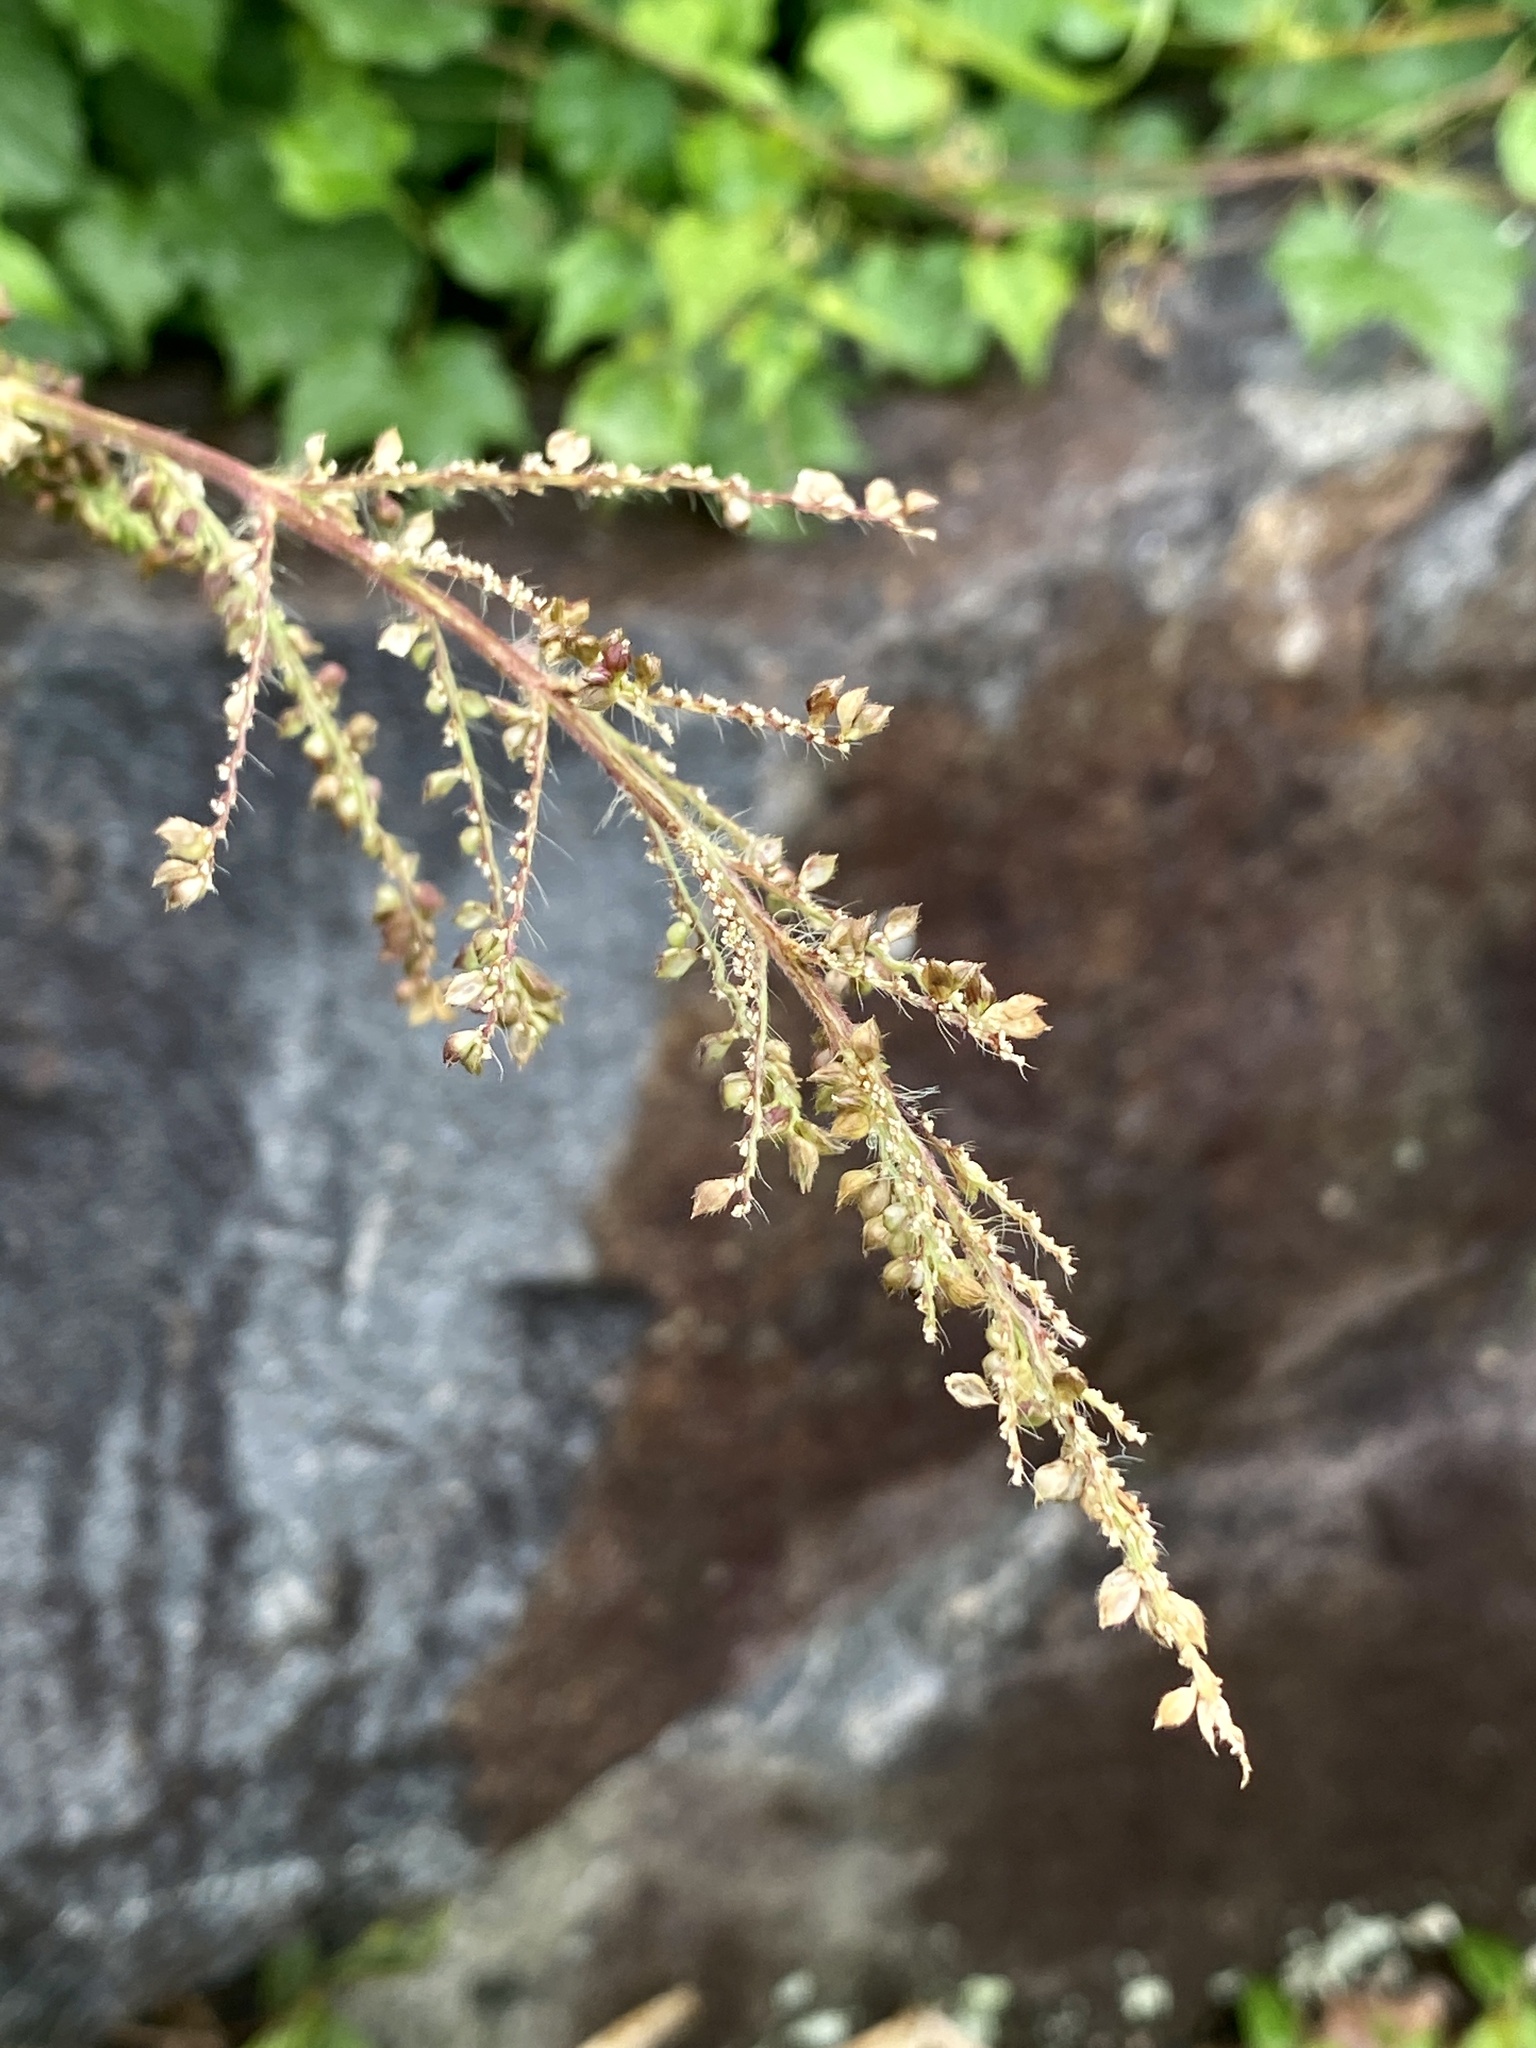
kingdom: Plantae
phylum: Tracheophyta
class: Liliopsida
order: Poales
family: Poaceae
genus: Echinochloa
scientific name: Echinochloa crus-galli
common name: Cockspur
